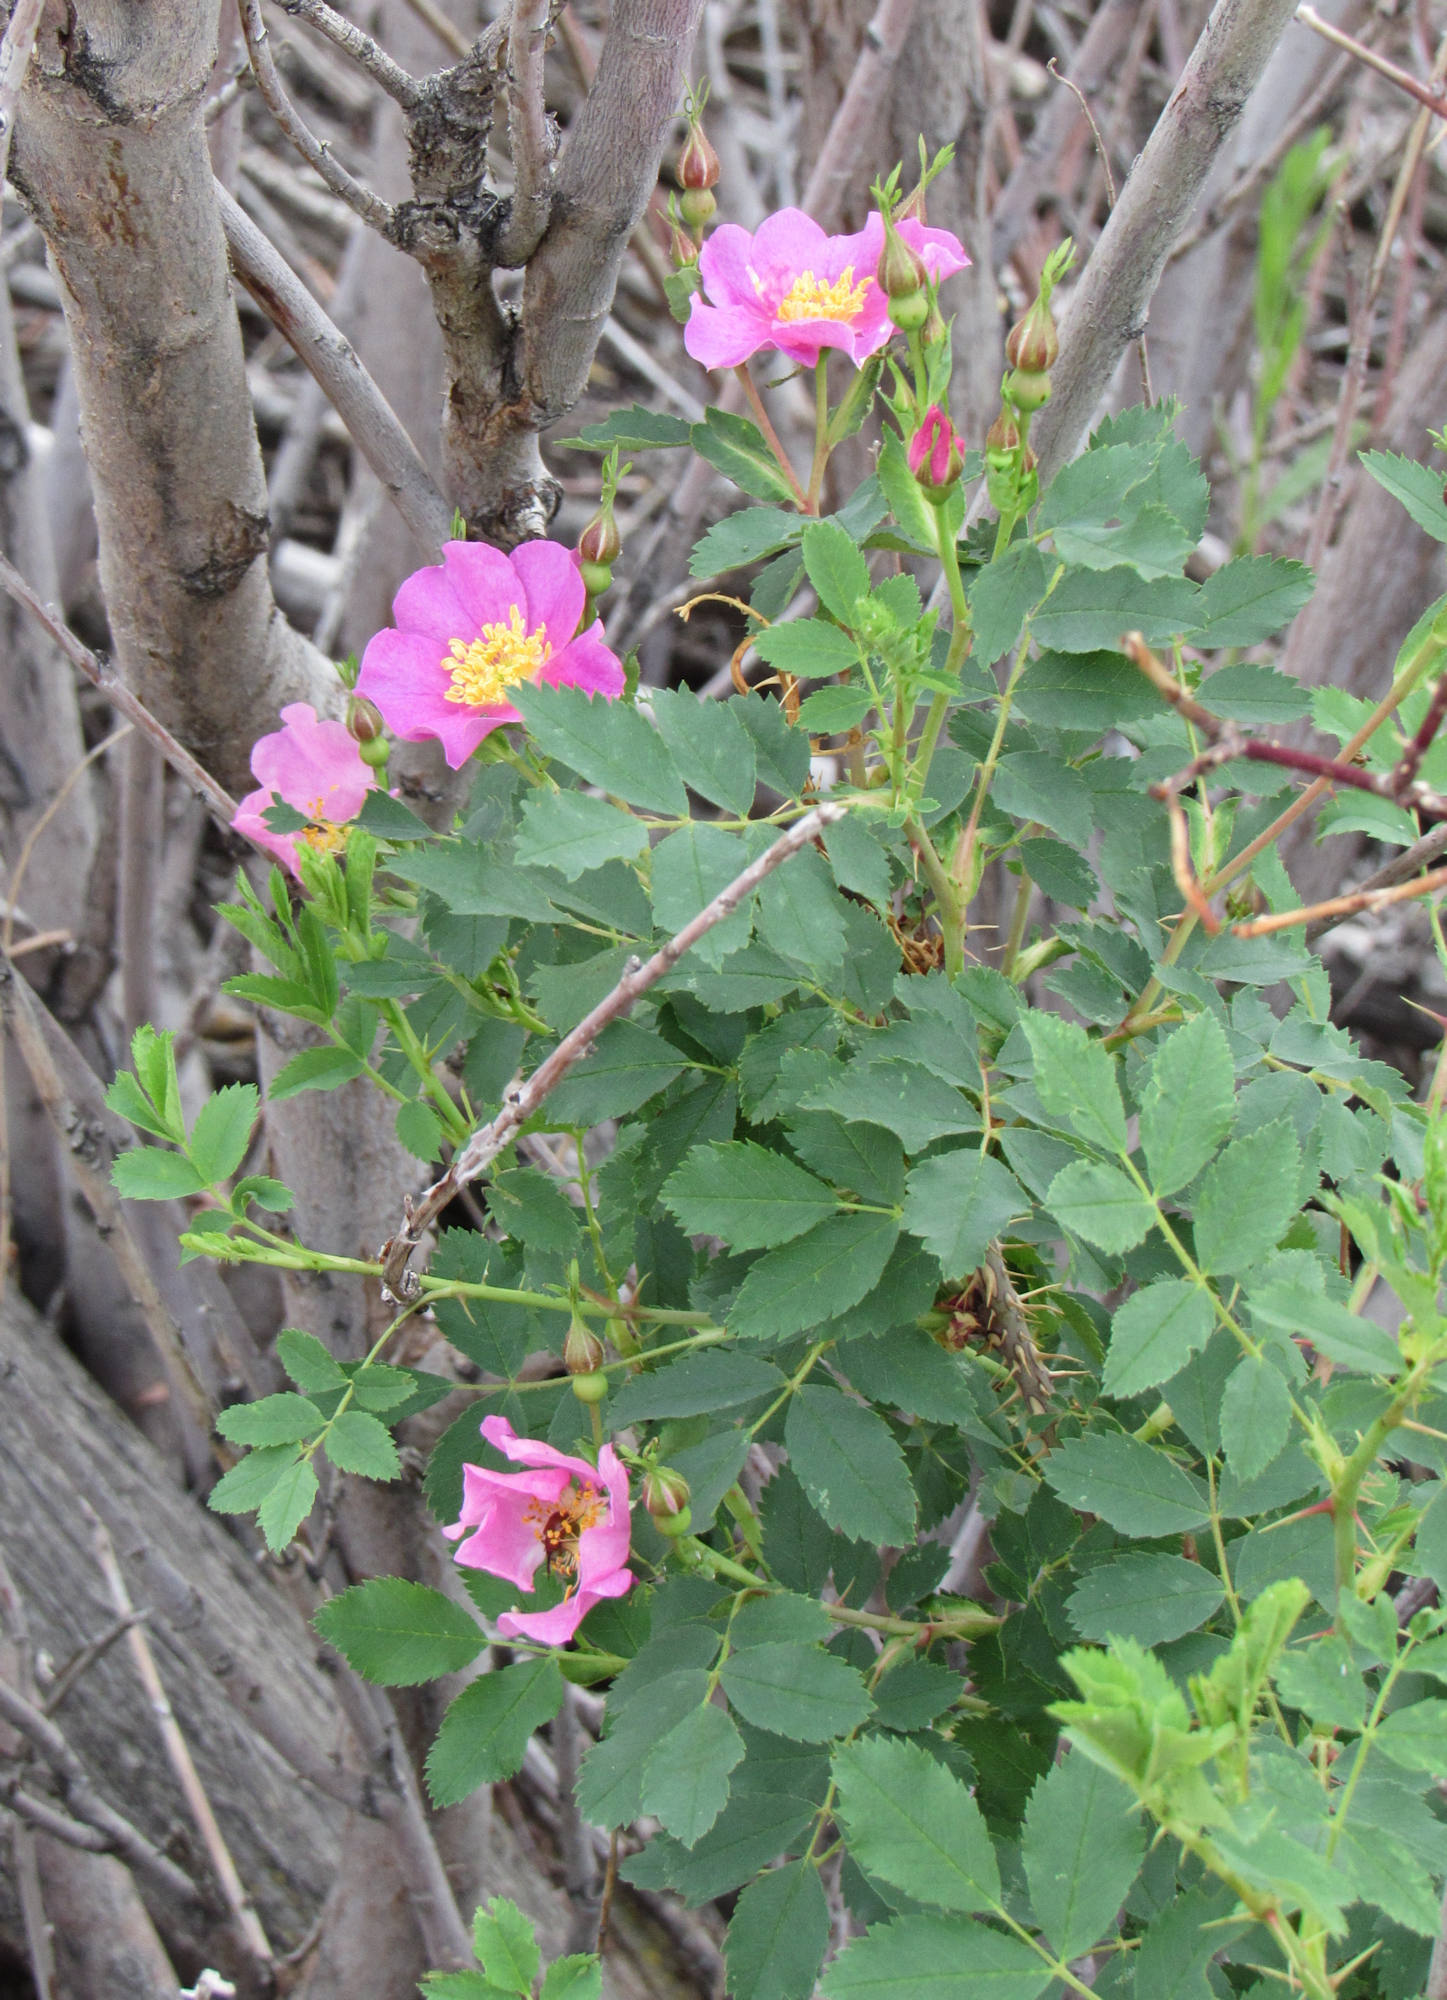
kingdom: Plantae
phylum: Tracheophyta
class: Magnoliopsida
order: Rosales
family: Rosaceae
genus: Rosa
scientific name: Rosa woodsii
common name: Woods's rose
